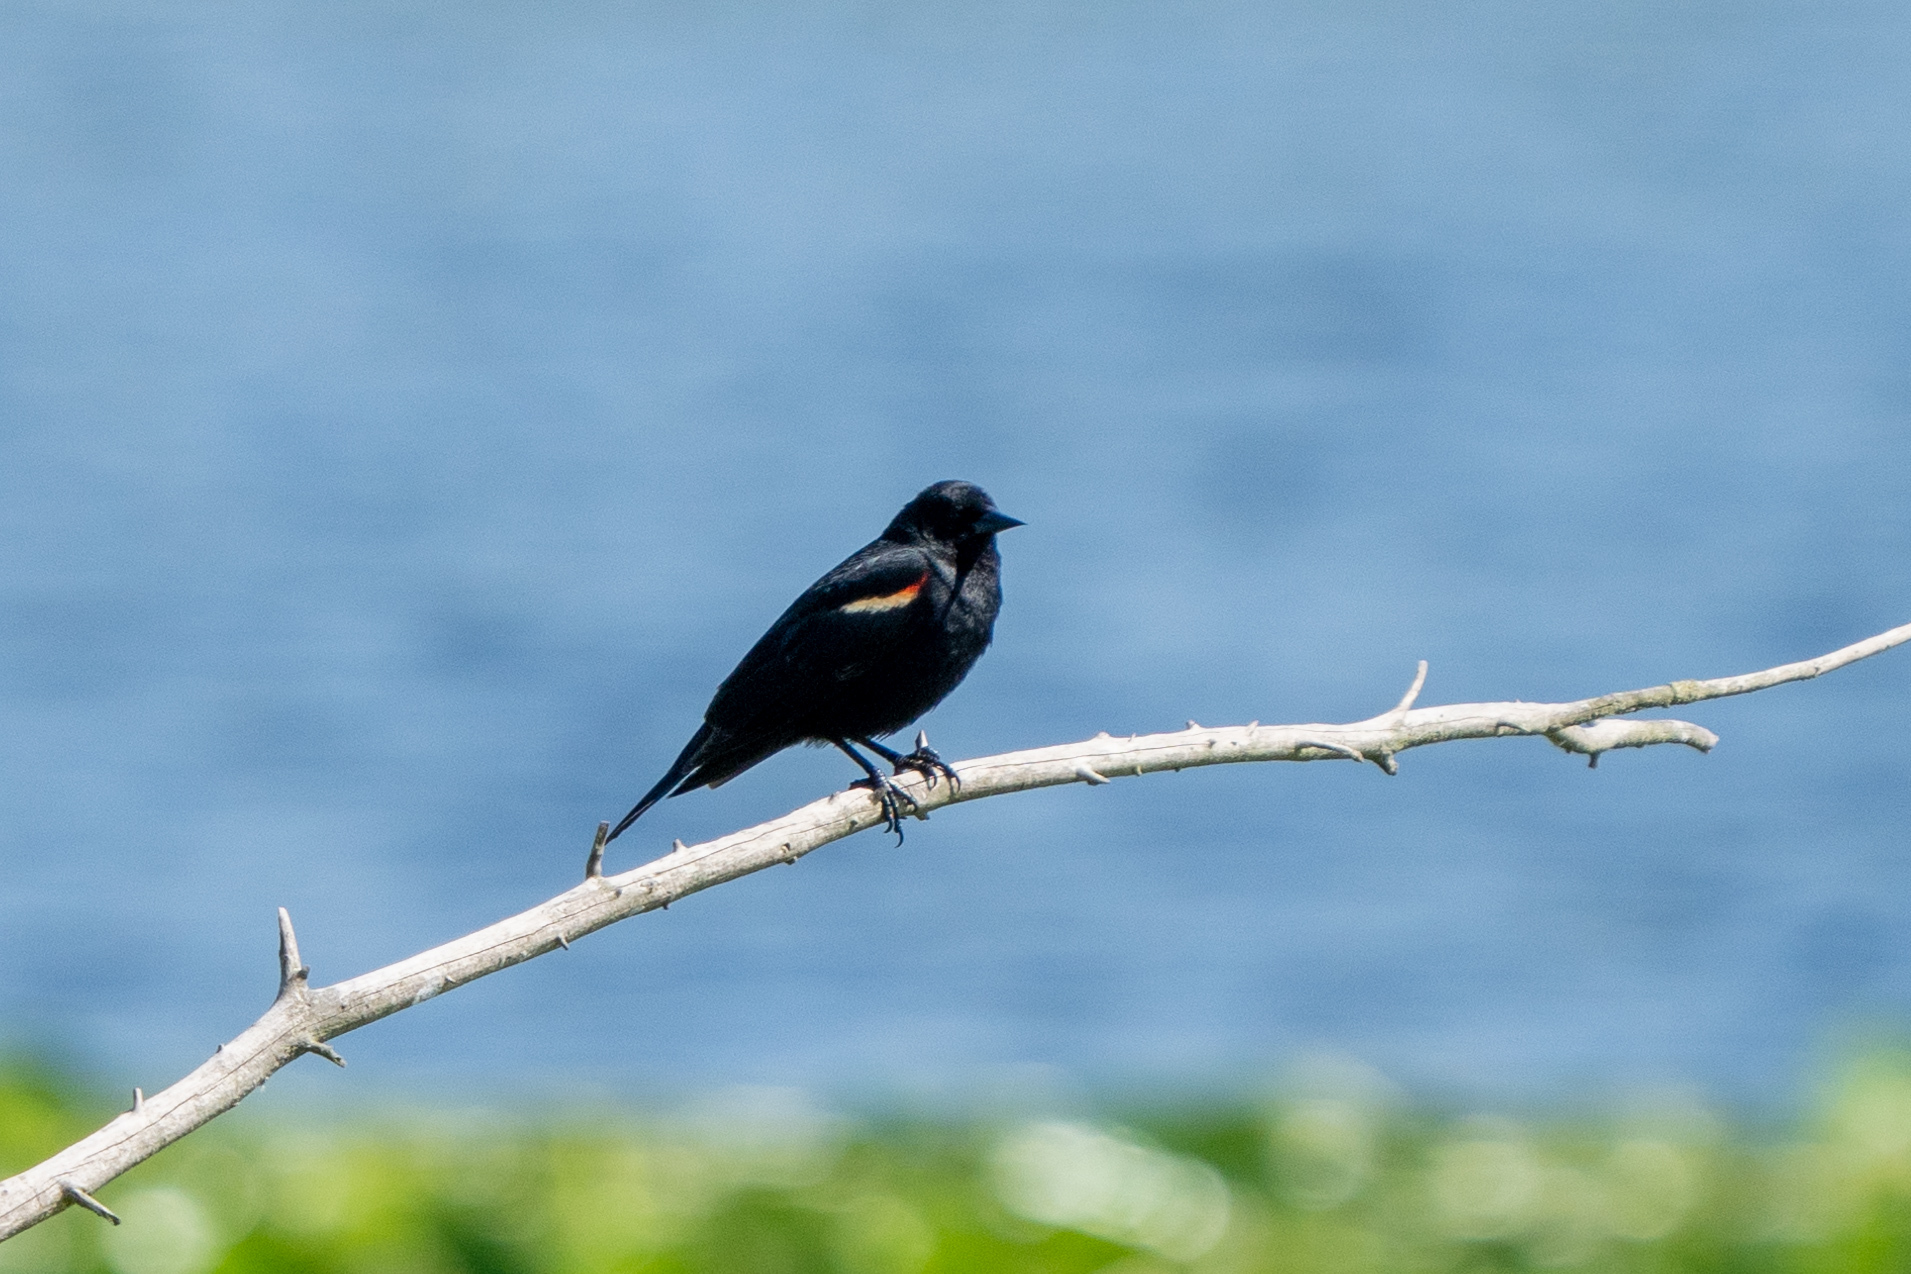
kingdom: Animalia
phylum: Chordata
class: Aves
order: Passeriformes
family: Icteridae
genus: Agelaius
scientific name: Agelaius phoeniceus
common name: Red-winged blackbird
